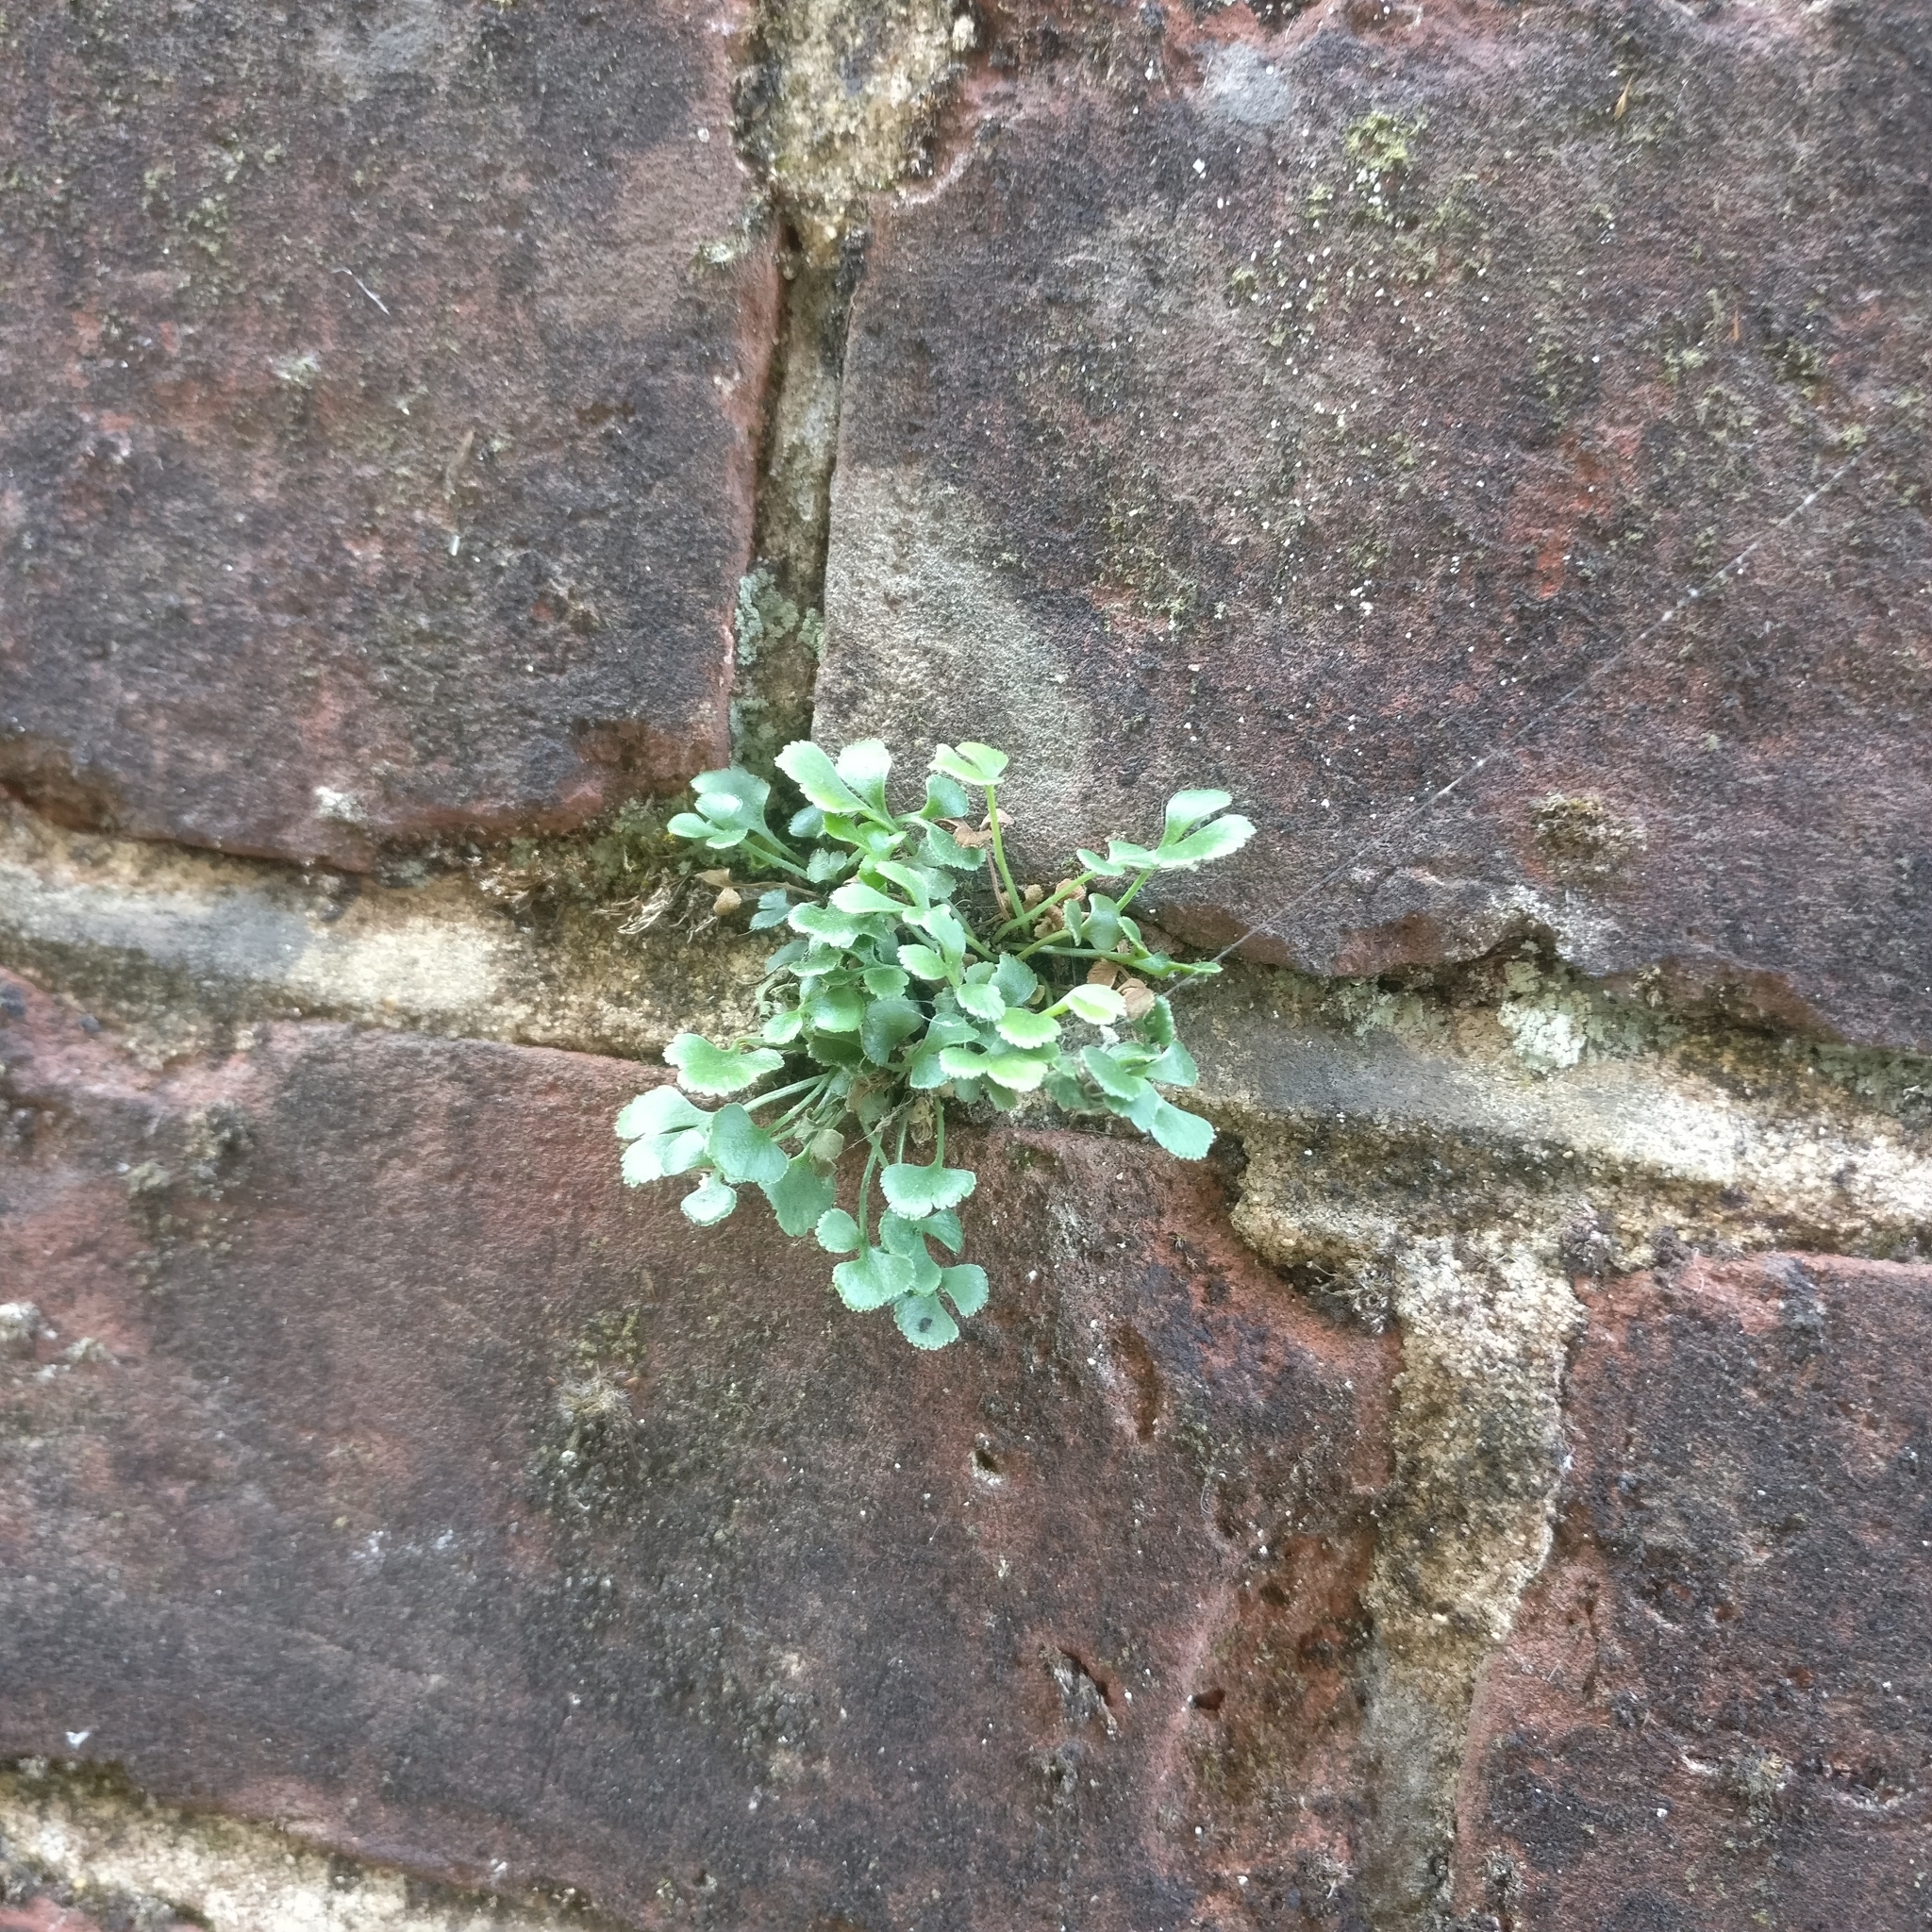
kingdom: Plantae
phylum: Tracheophyta
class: Polypodiopsida
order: Polypodiales
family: Aspleniaceae
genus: Asplenium
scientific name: Asplenium ruta-muraria
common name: Wall-rue
